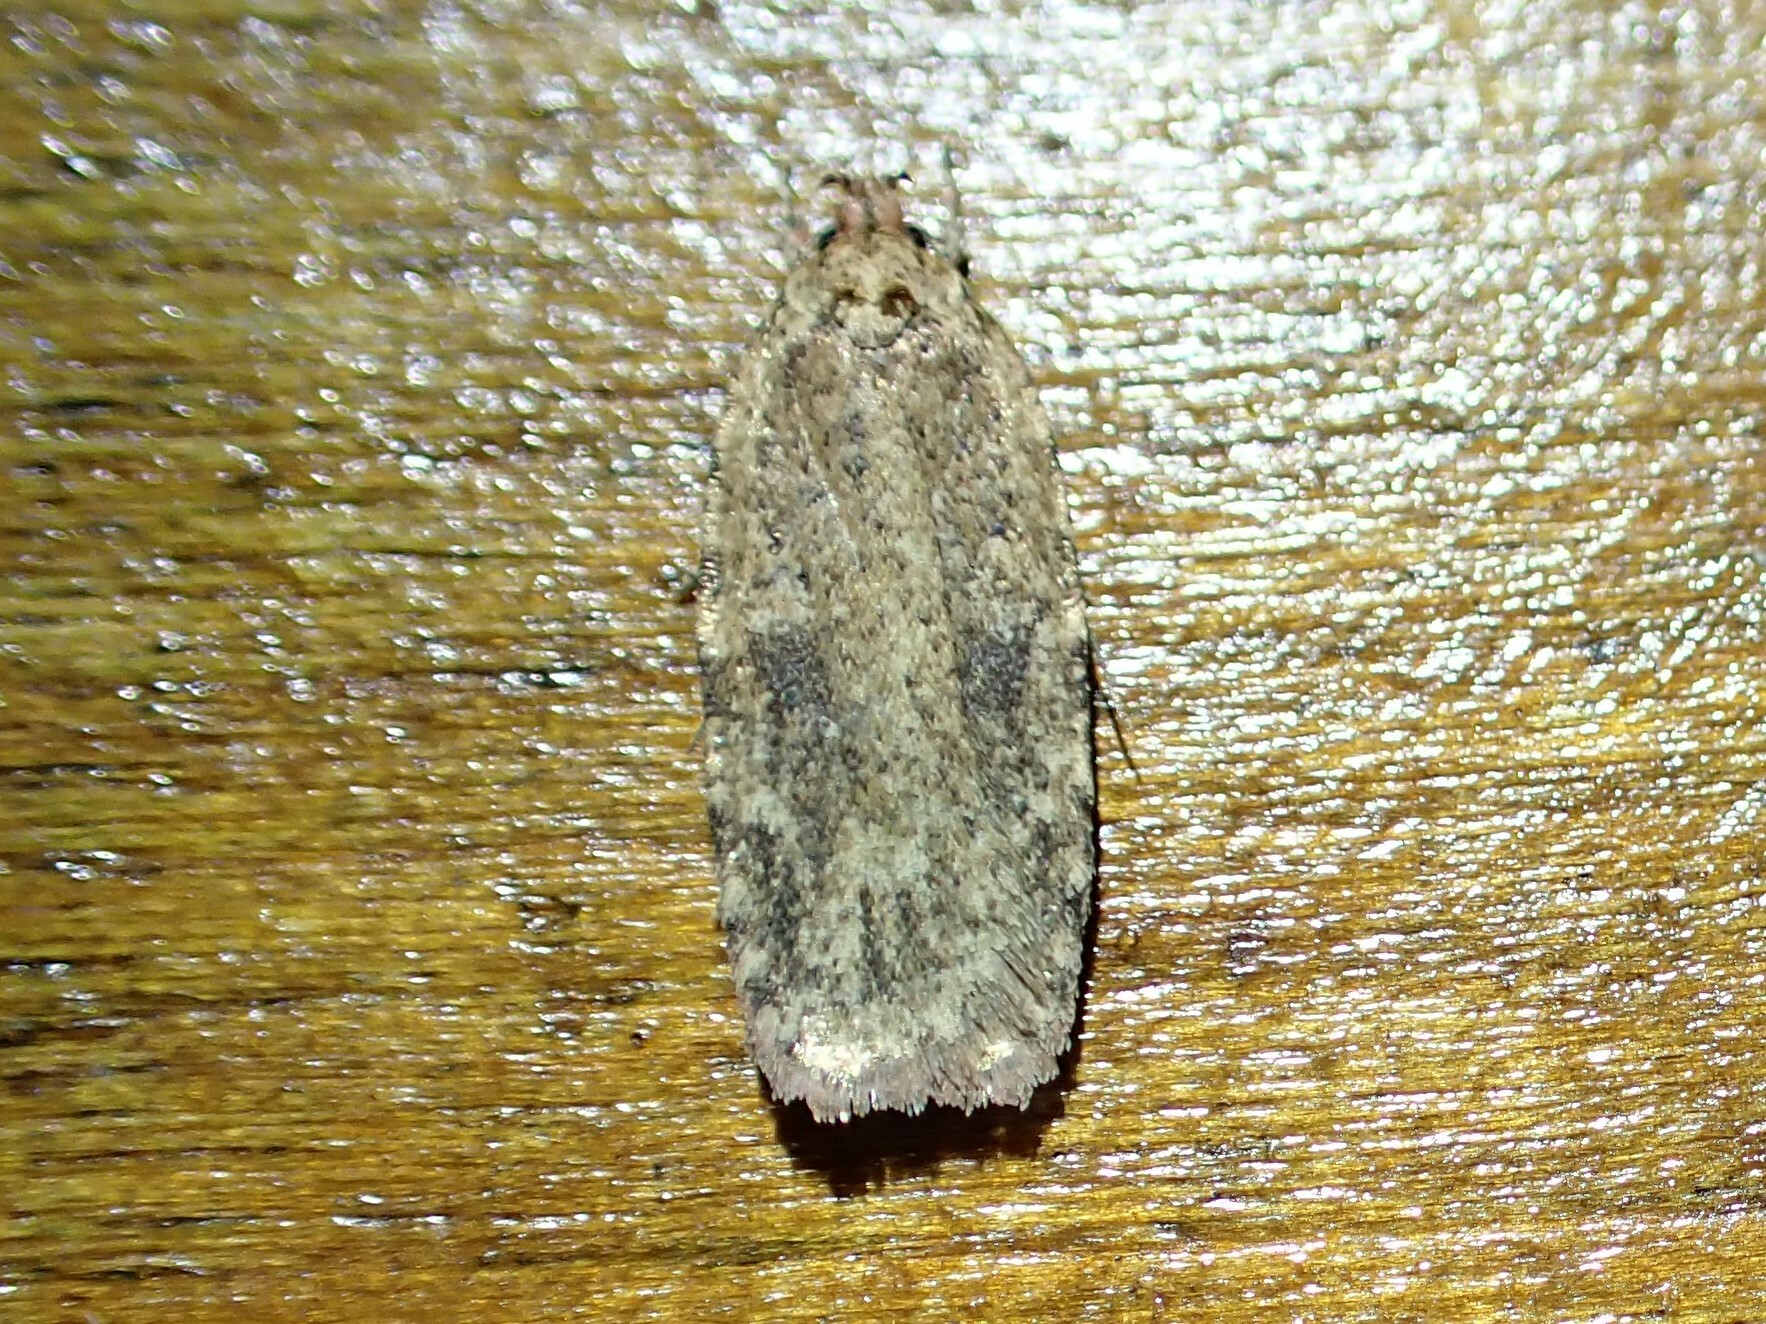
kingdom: Animalia
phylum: Arthropoda
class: Insecta
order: Lepidoptera
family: Depressariidae
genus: Agonopterix
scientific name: Agonopterix pulvipennella
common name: Goldenrod leafffolder
